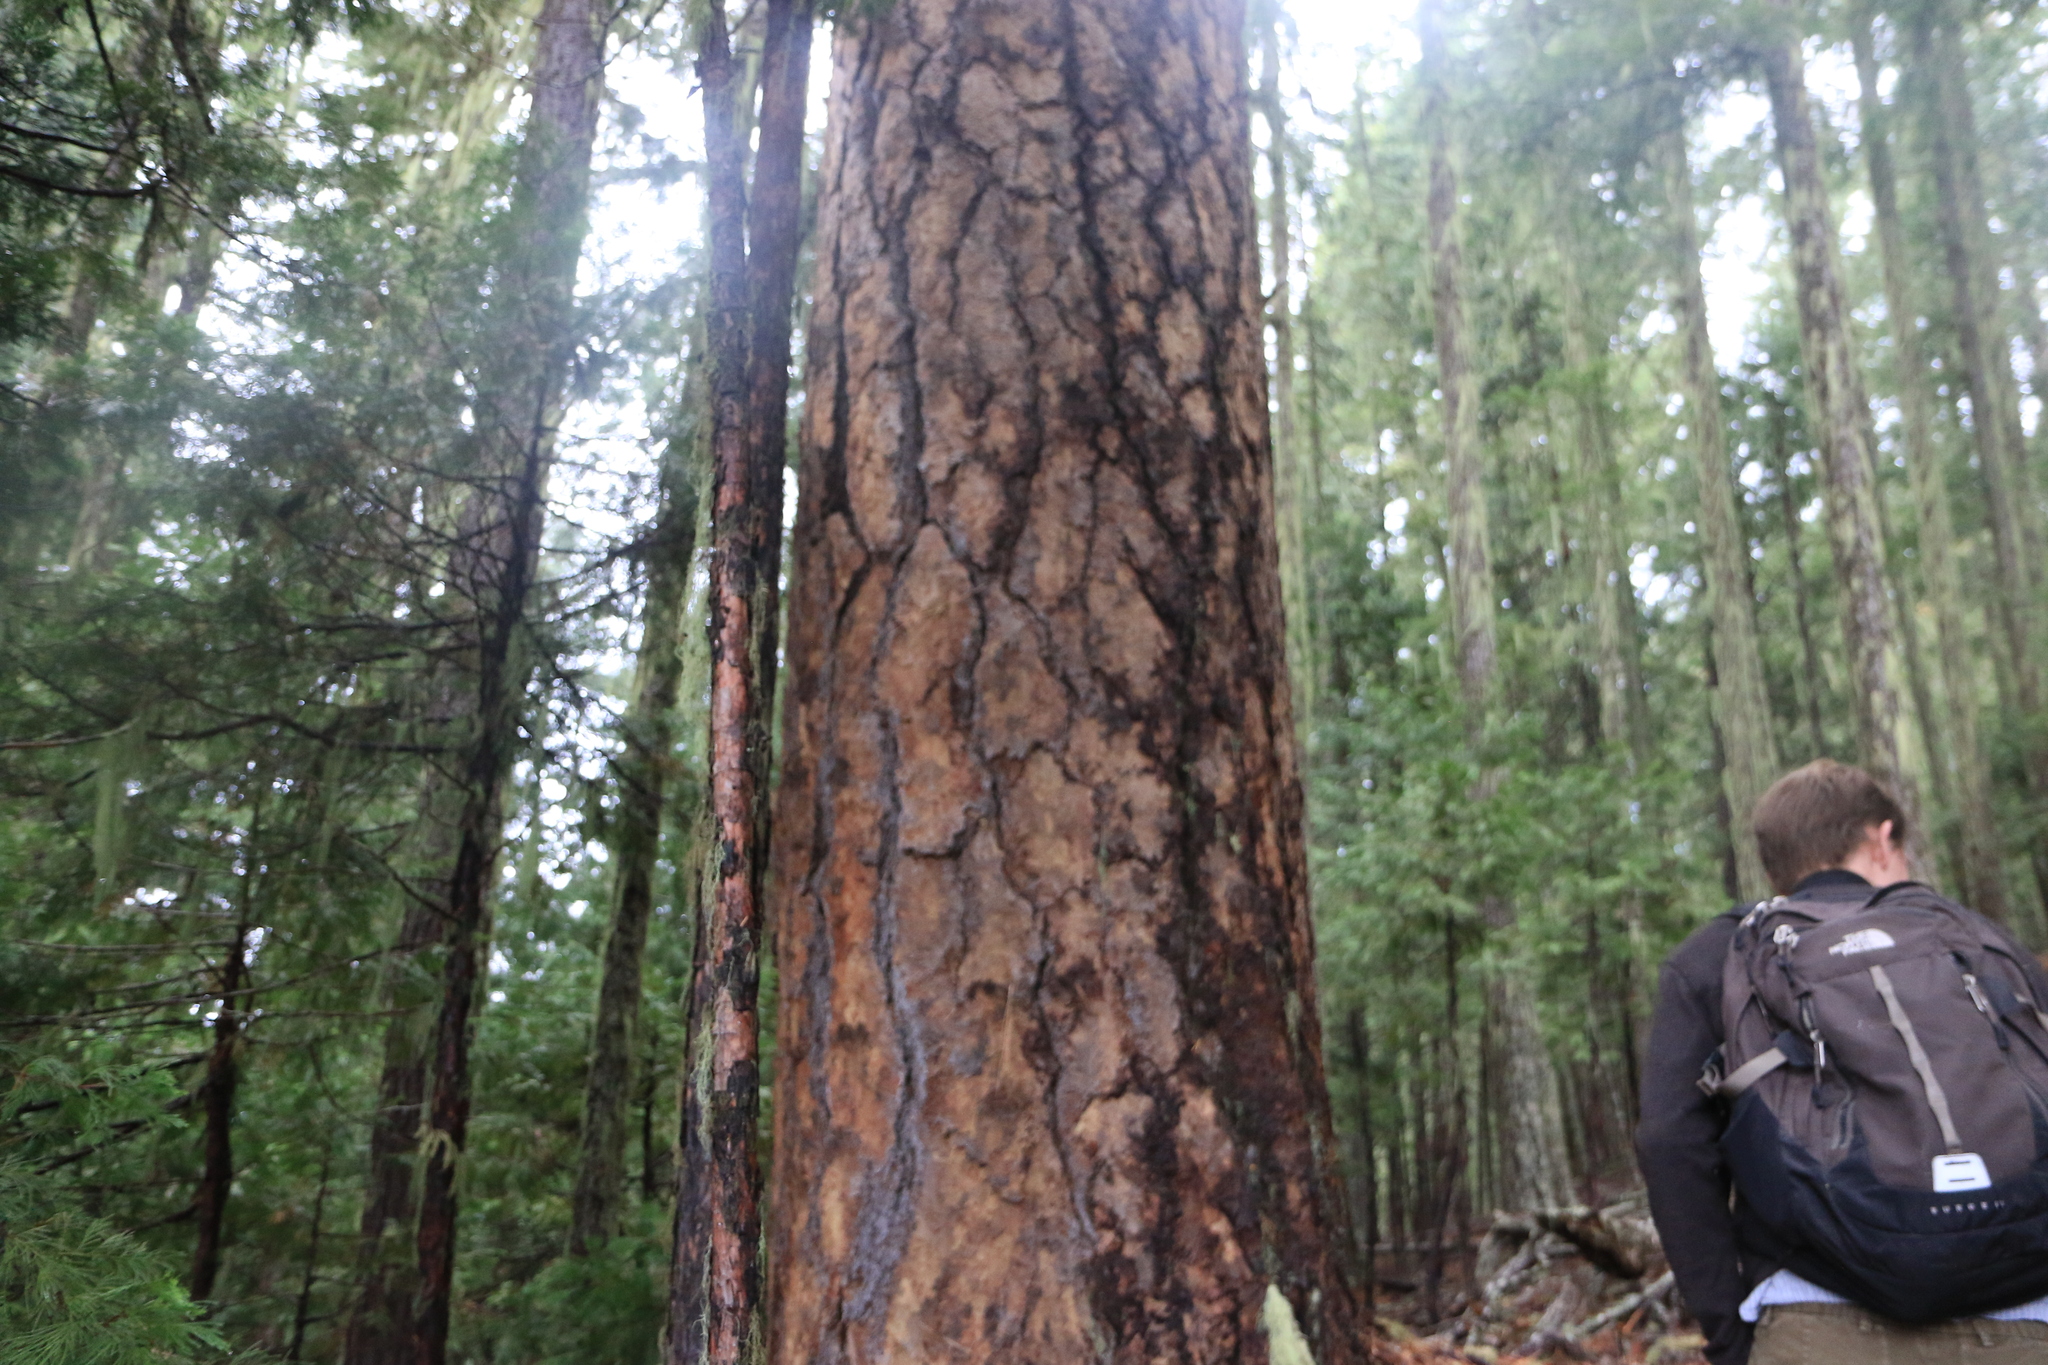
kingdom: Plantae
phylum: Tracheophyta
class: Pinopsida
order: Pinales
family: Pinaceae
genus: Pinus
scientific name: Pinus ponderosa
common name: Western yellow-pine
